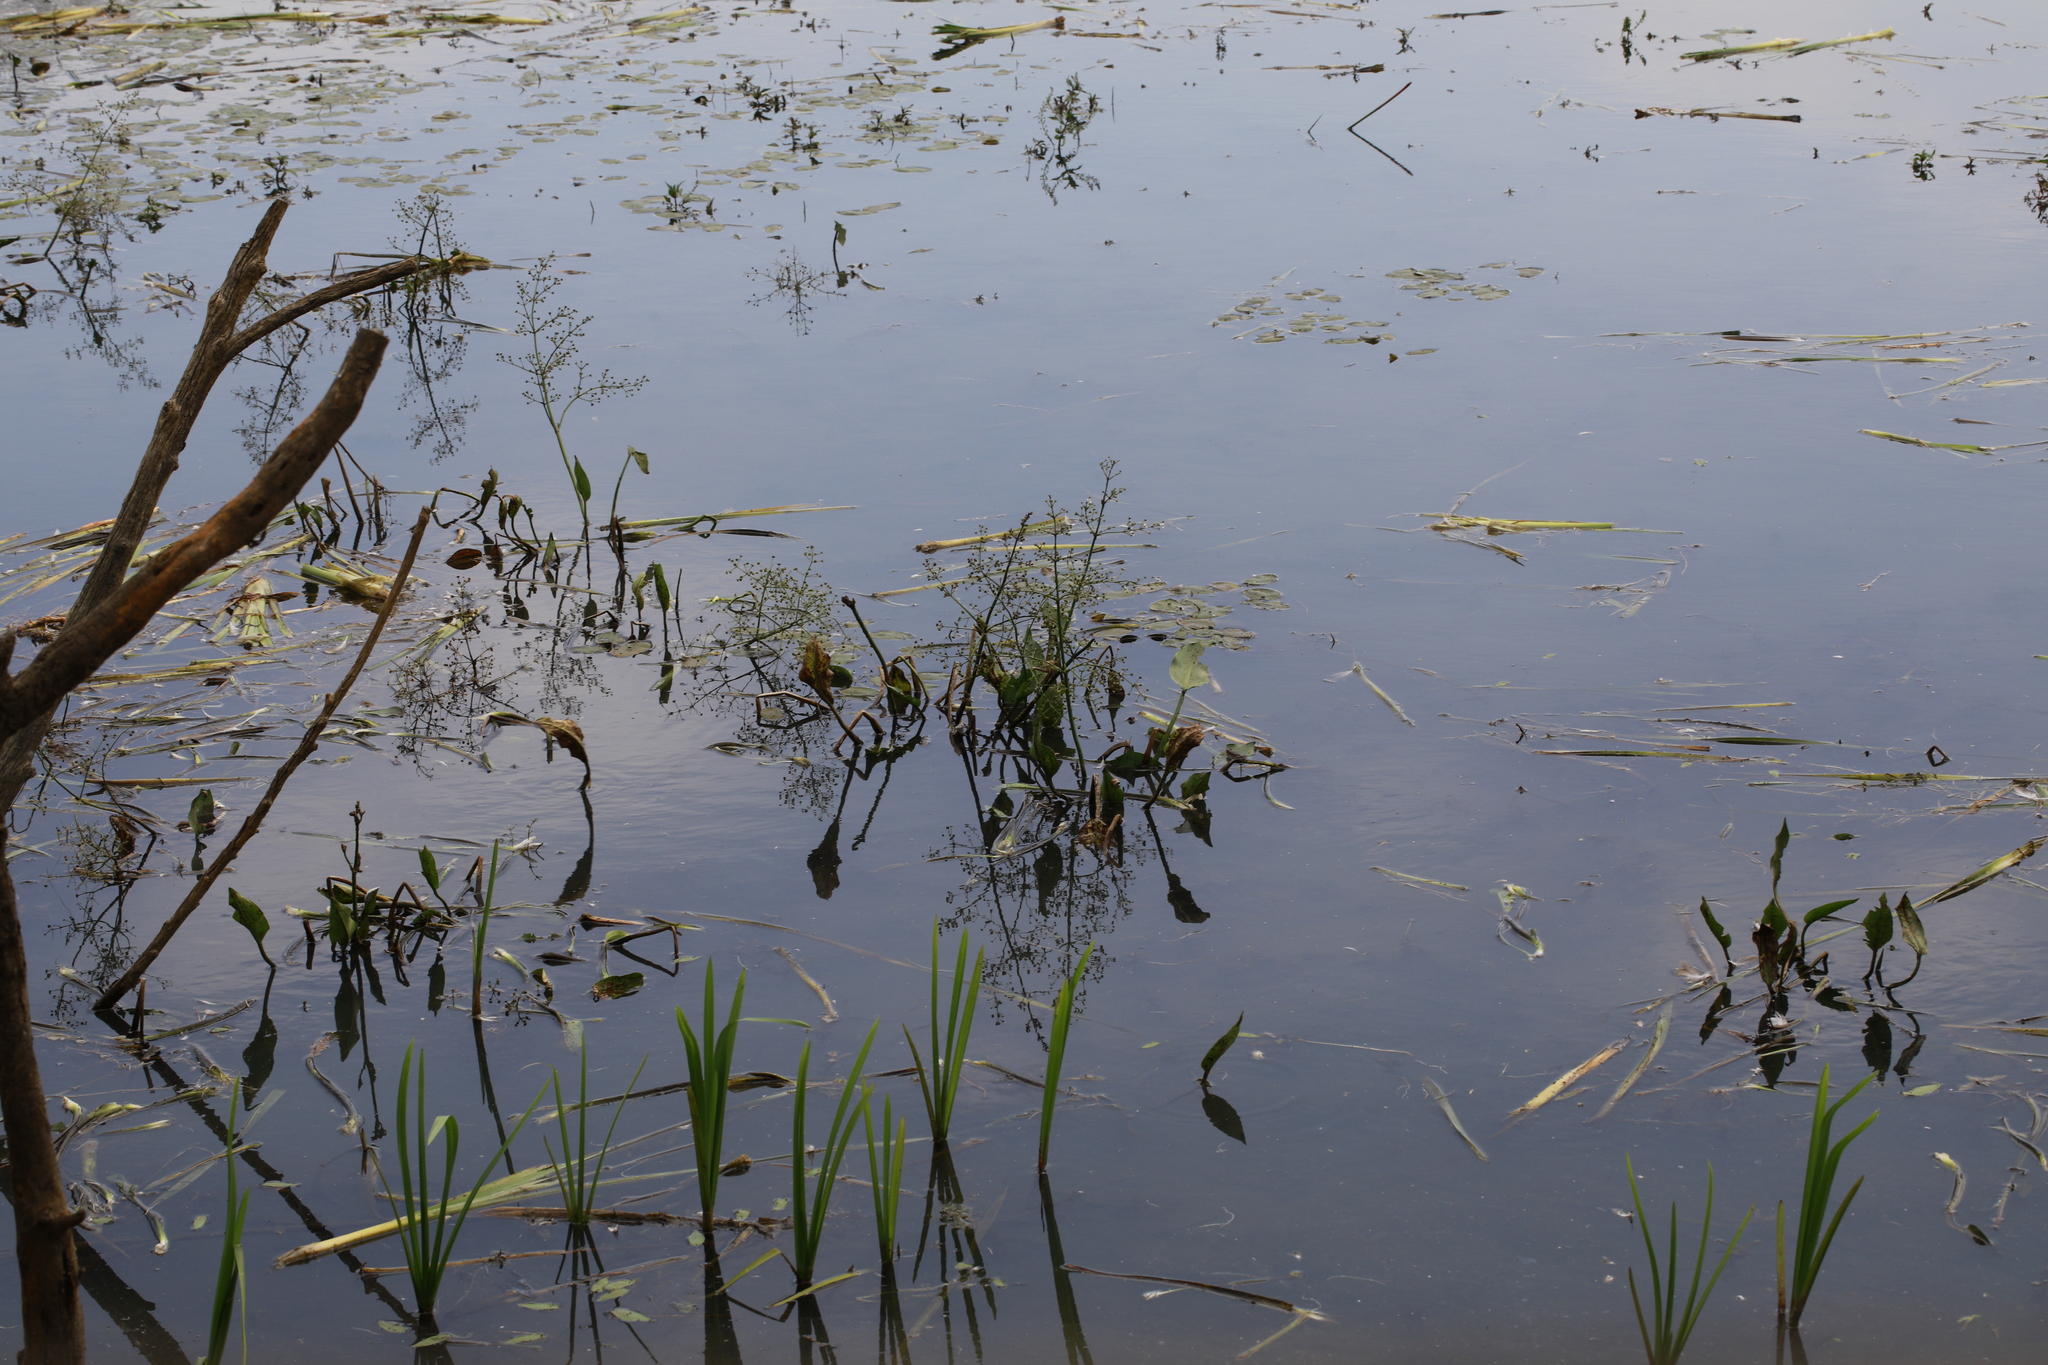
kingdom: Plantae
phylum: Tracheophyta
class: Liliopsida
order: Alismatales
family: Alismataceae
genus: Alisma
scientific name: Alisma plantago-aquatica
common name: Water-plantain
